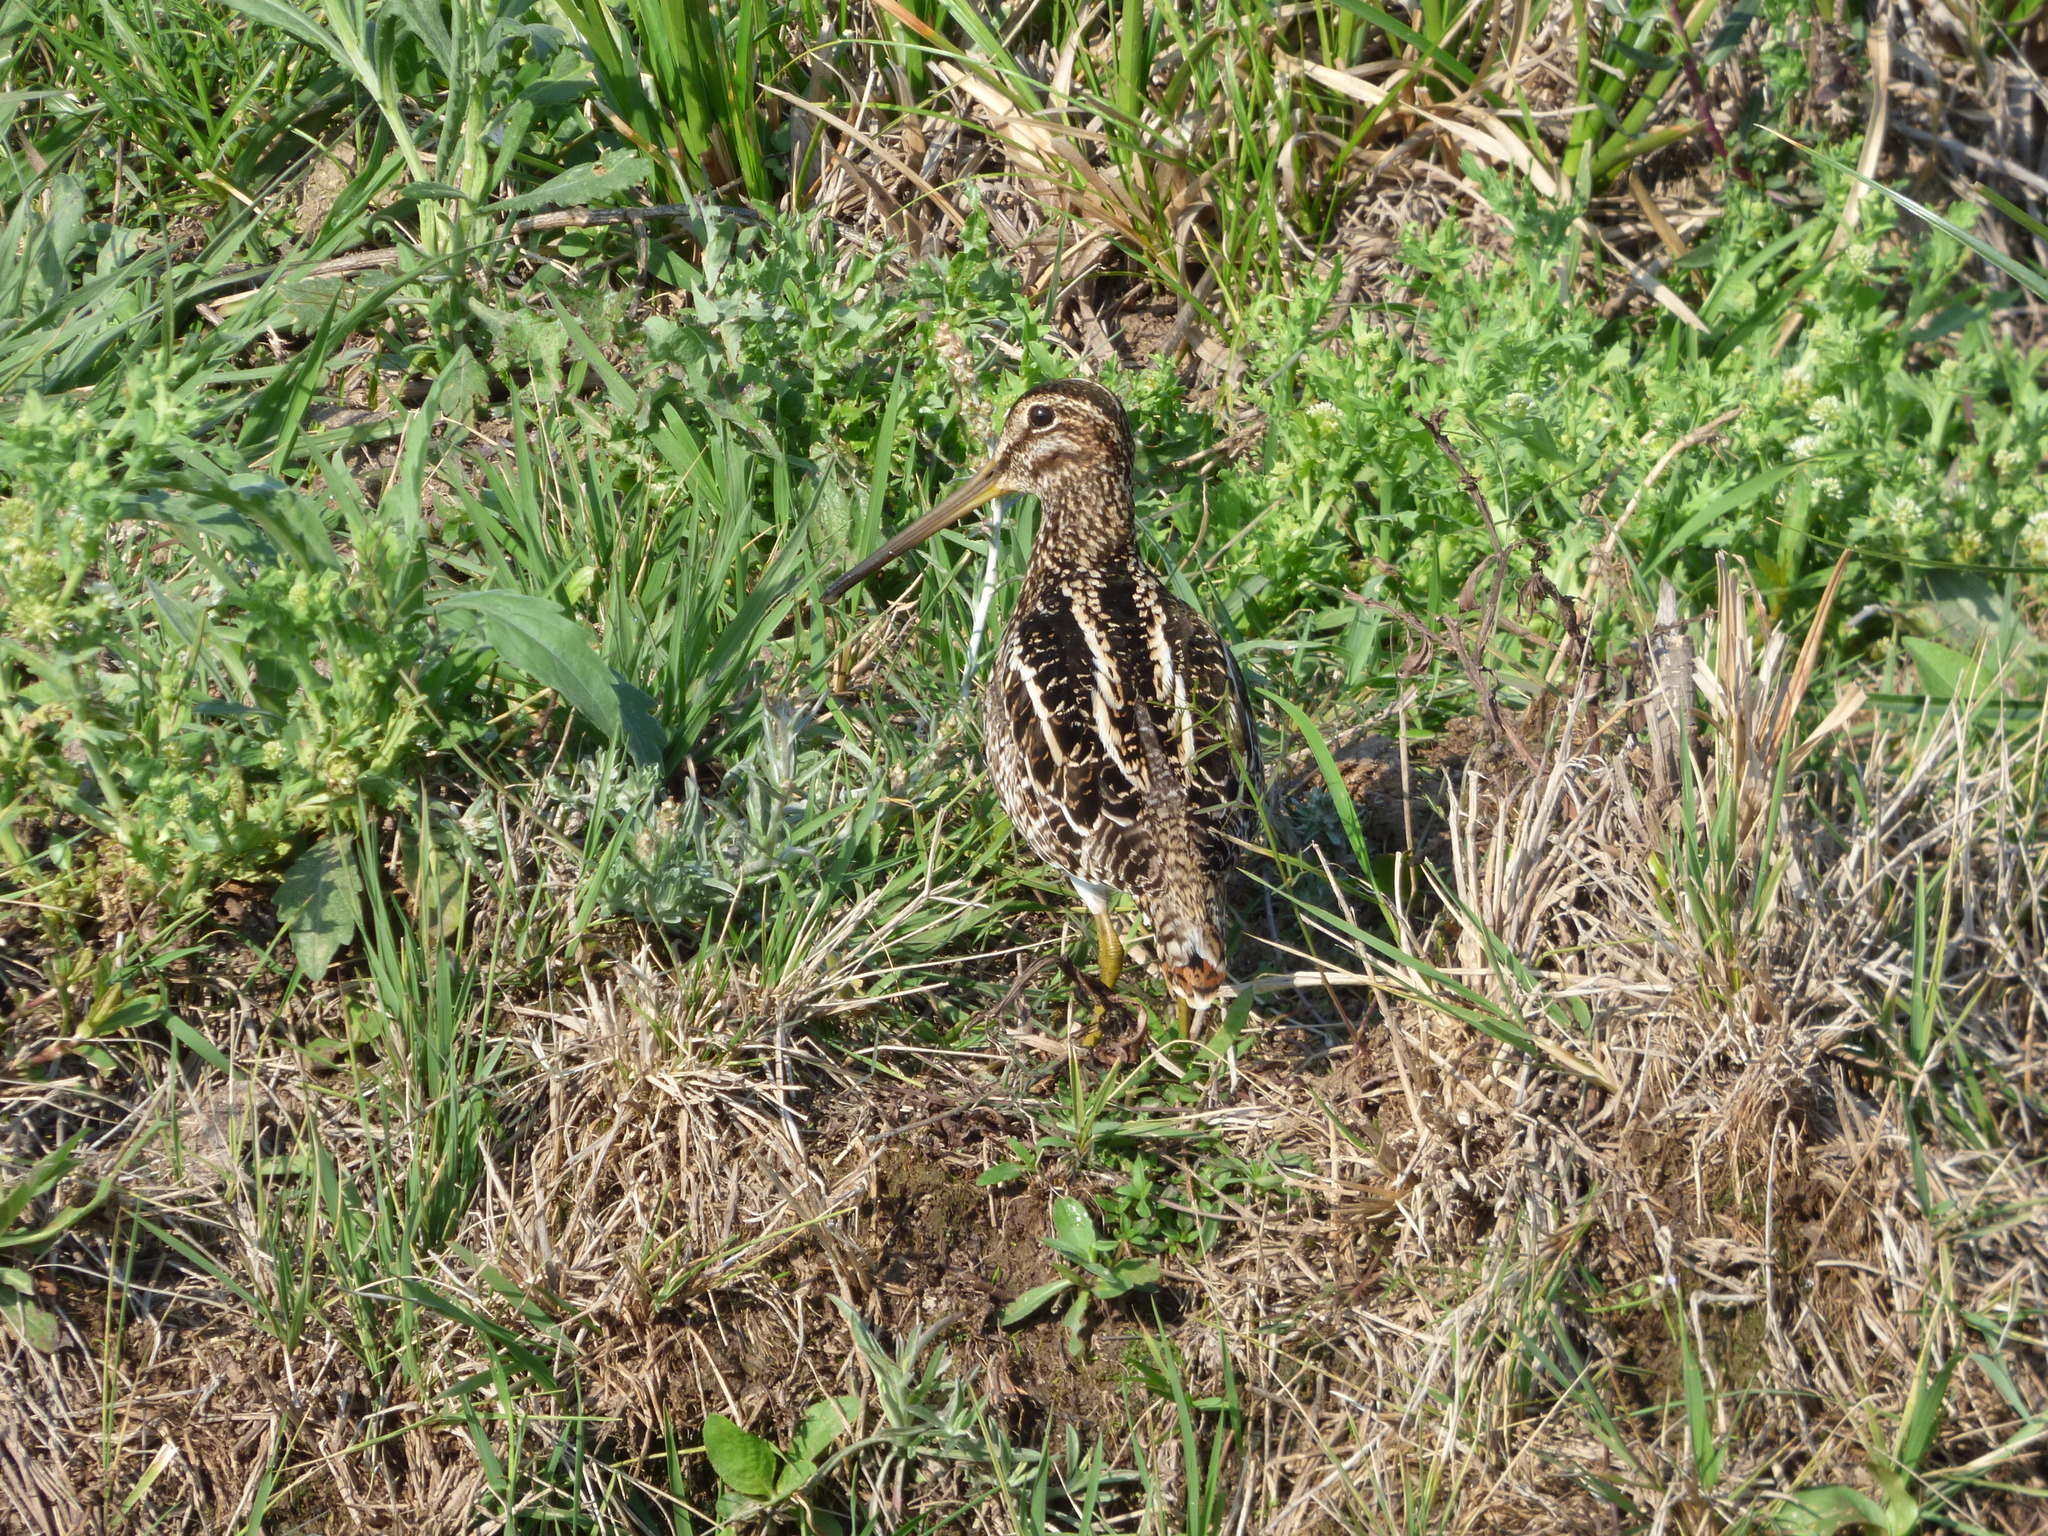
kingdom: Animalia
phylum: Chordata
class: Aves
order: Charadriiformes
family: Scolopacidae
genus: Gallinago
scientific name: Gallinago paraguaiae
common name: South american snipe
